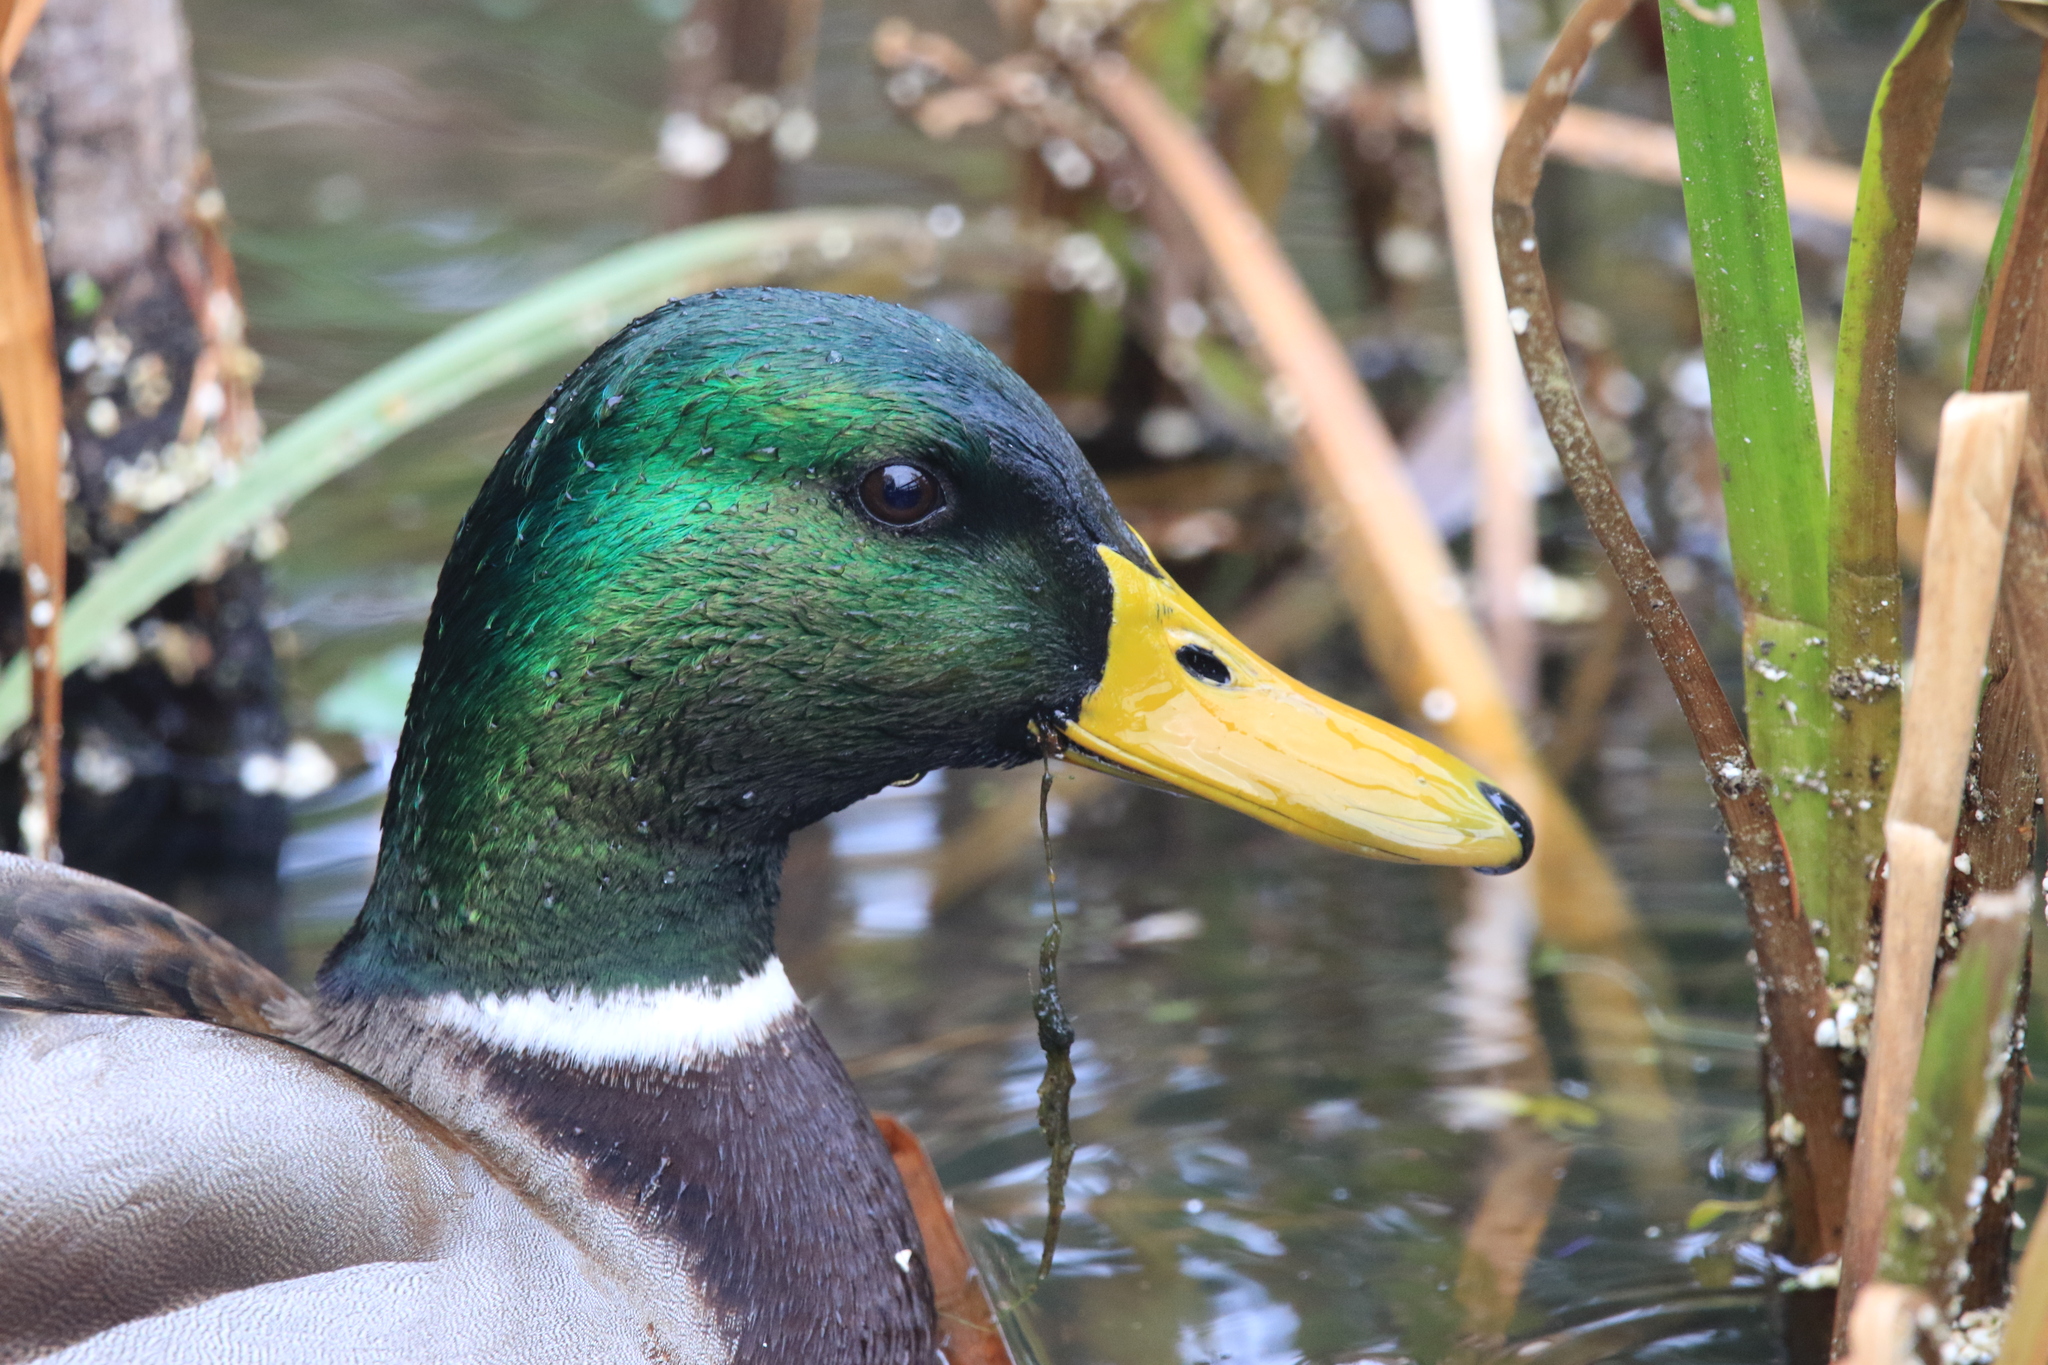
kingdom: Animalia
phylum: Chordata
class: Aves
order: Anseriformes
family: Anatidae
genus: Anas
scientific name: Anas platyrhynchos
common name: Mallard
